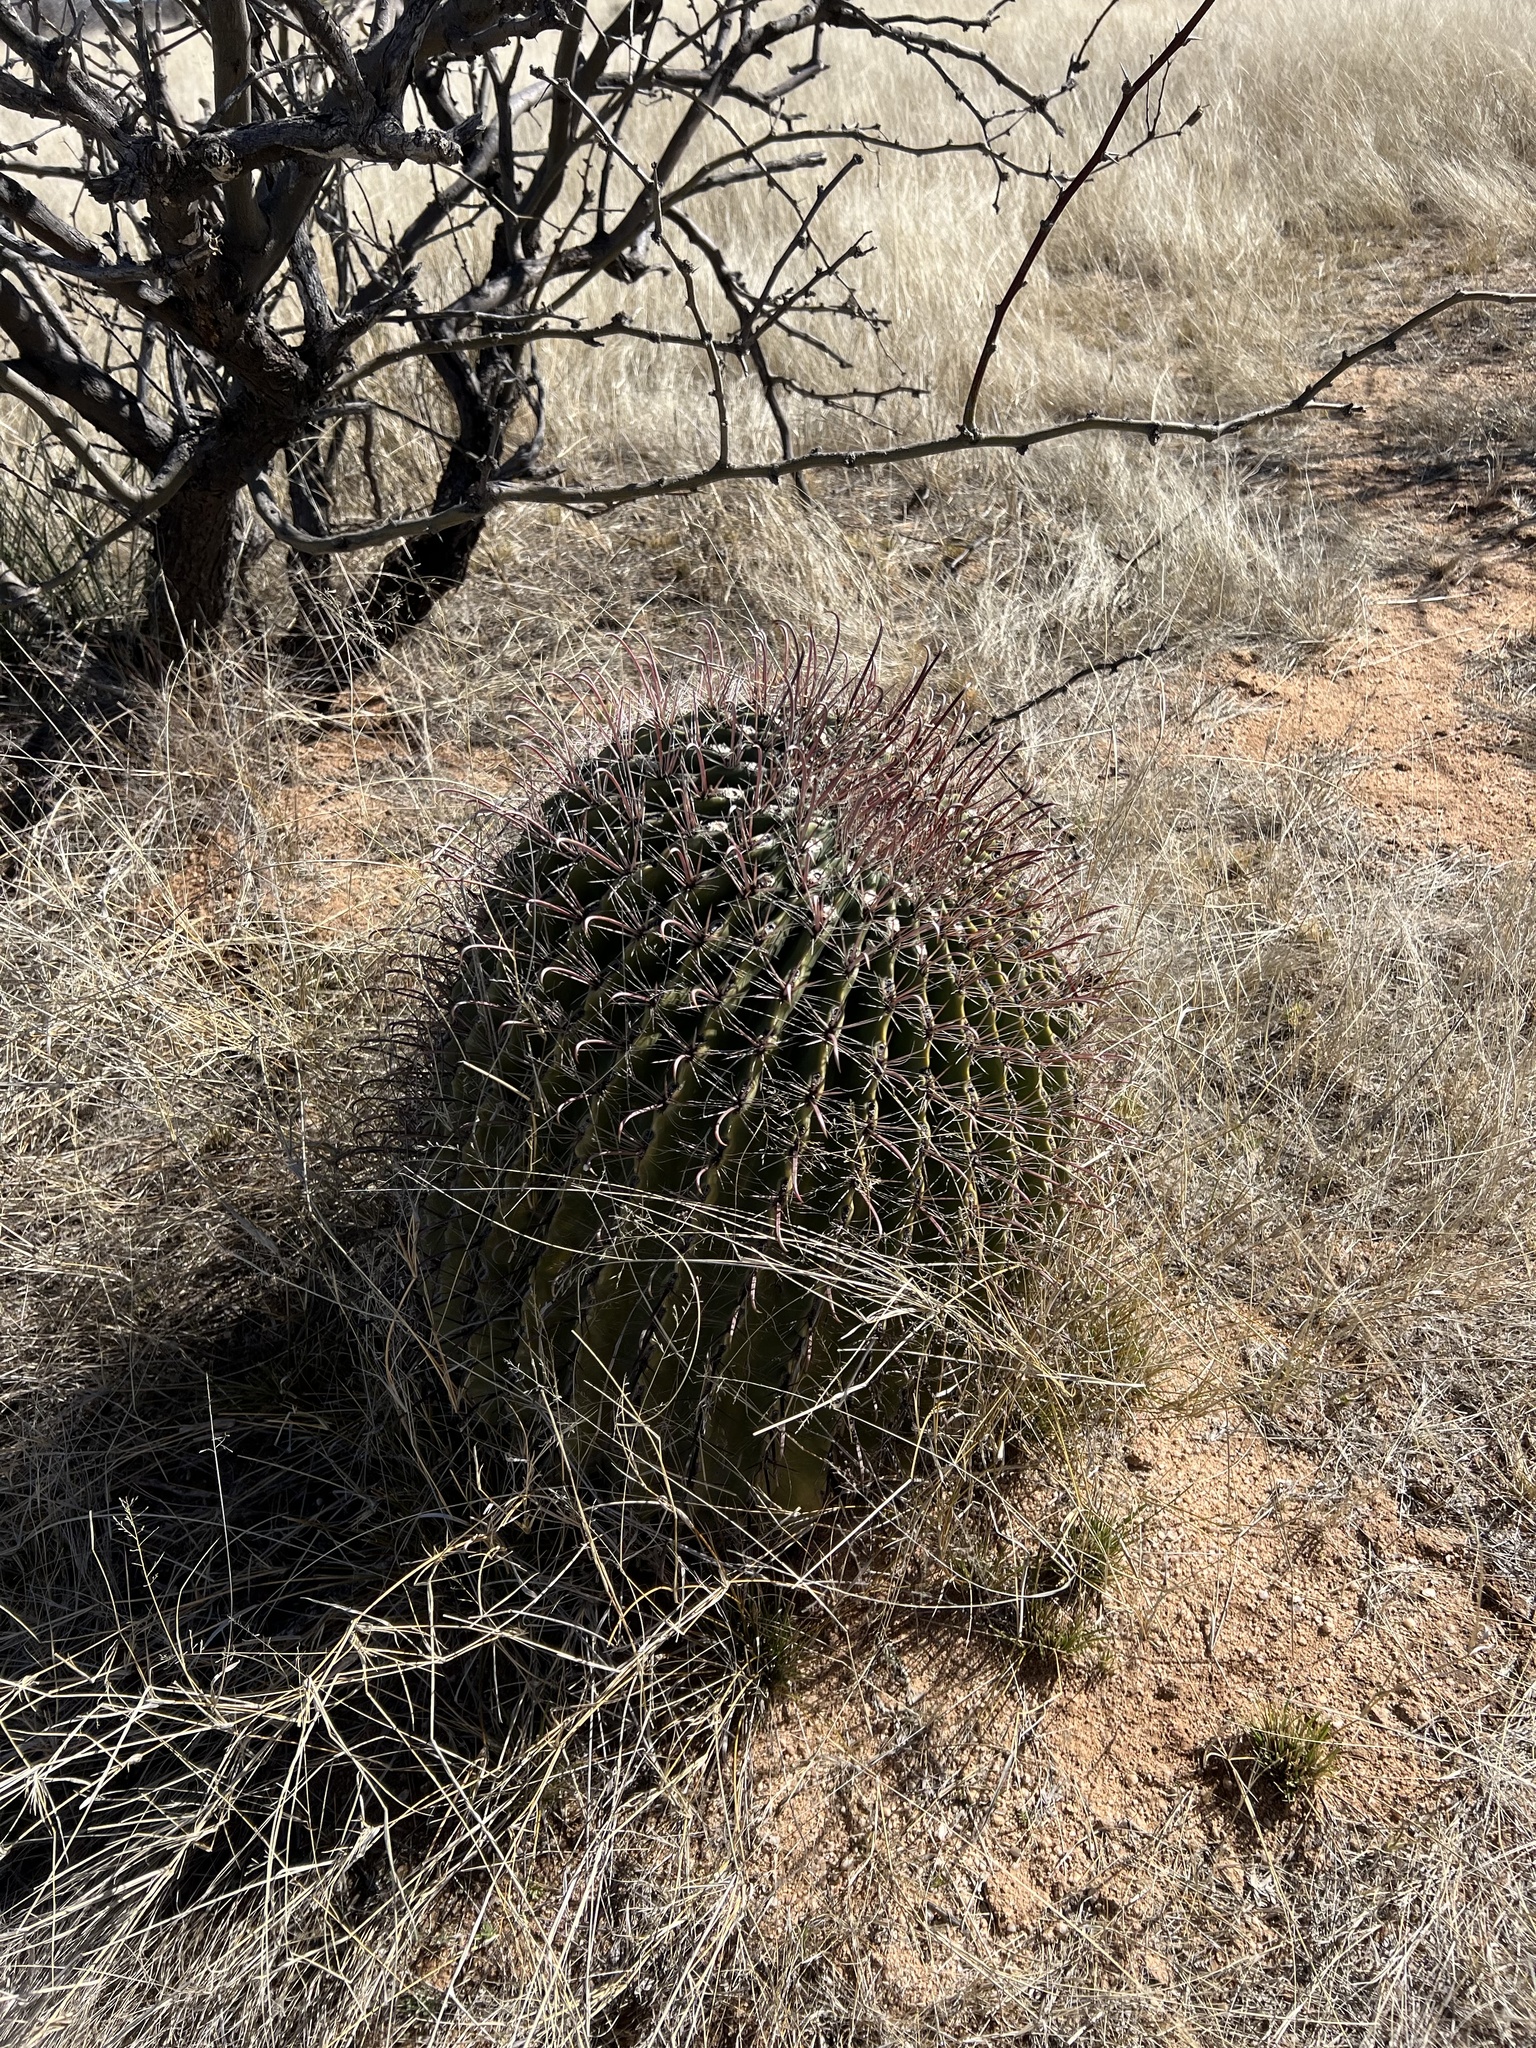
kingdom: Plantae
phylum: Tracheophyta
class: Magnoliopsida
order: Caryophyllales
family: Cactaceae
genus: Ferocactus
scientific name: Ferocactus wislizeni
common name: Candy barrel cactus
